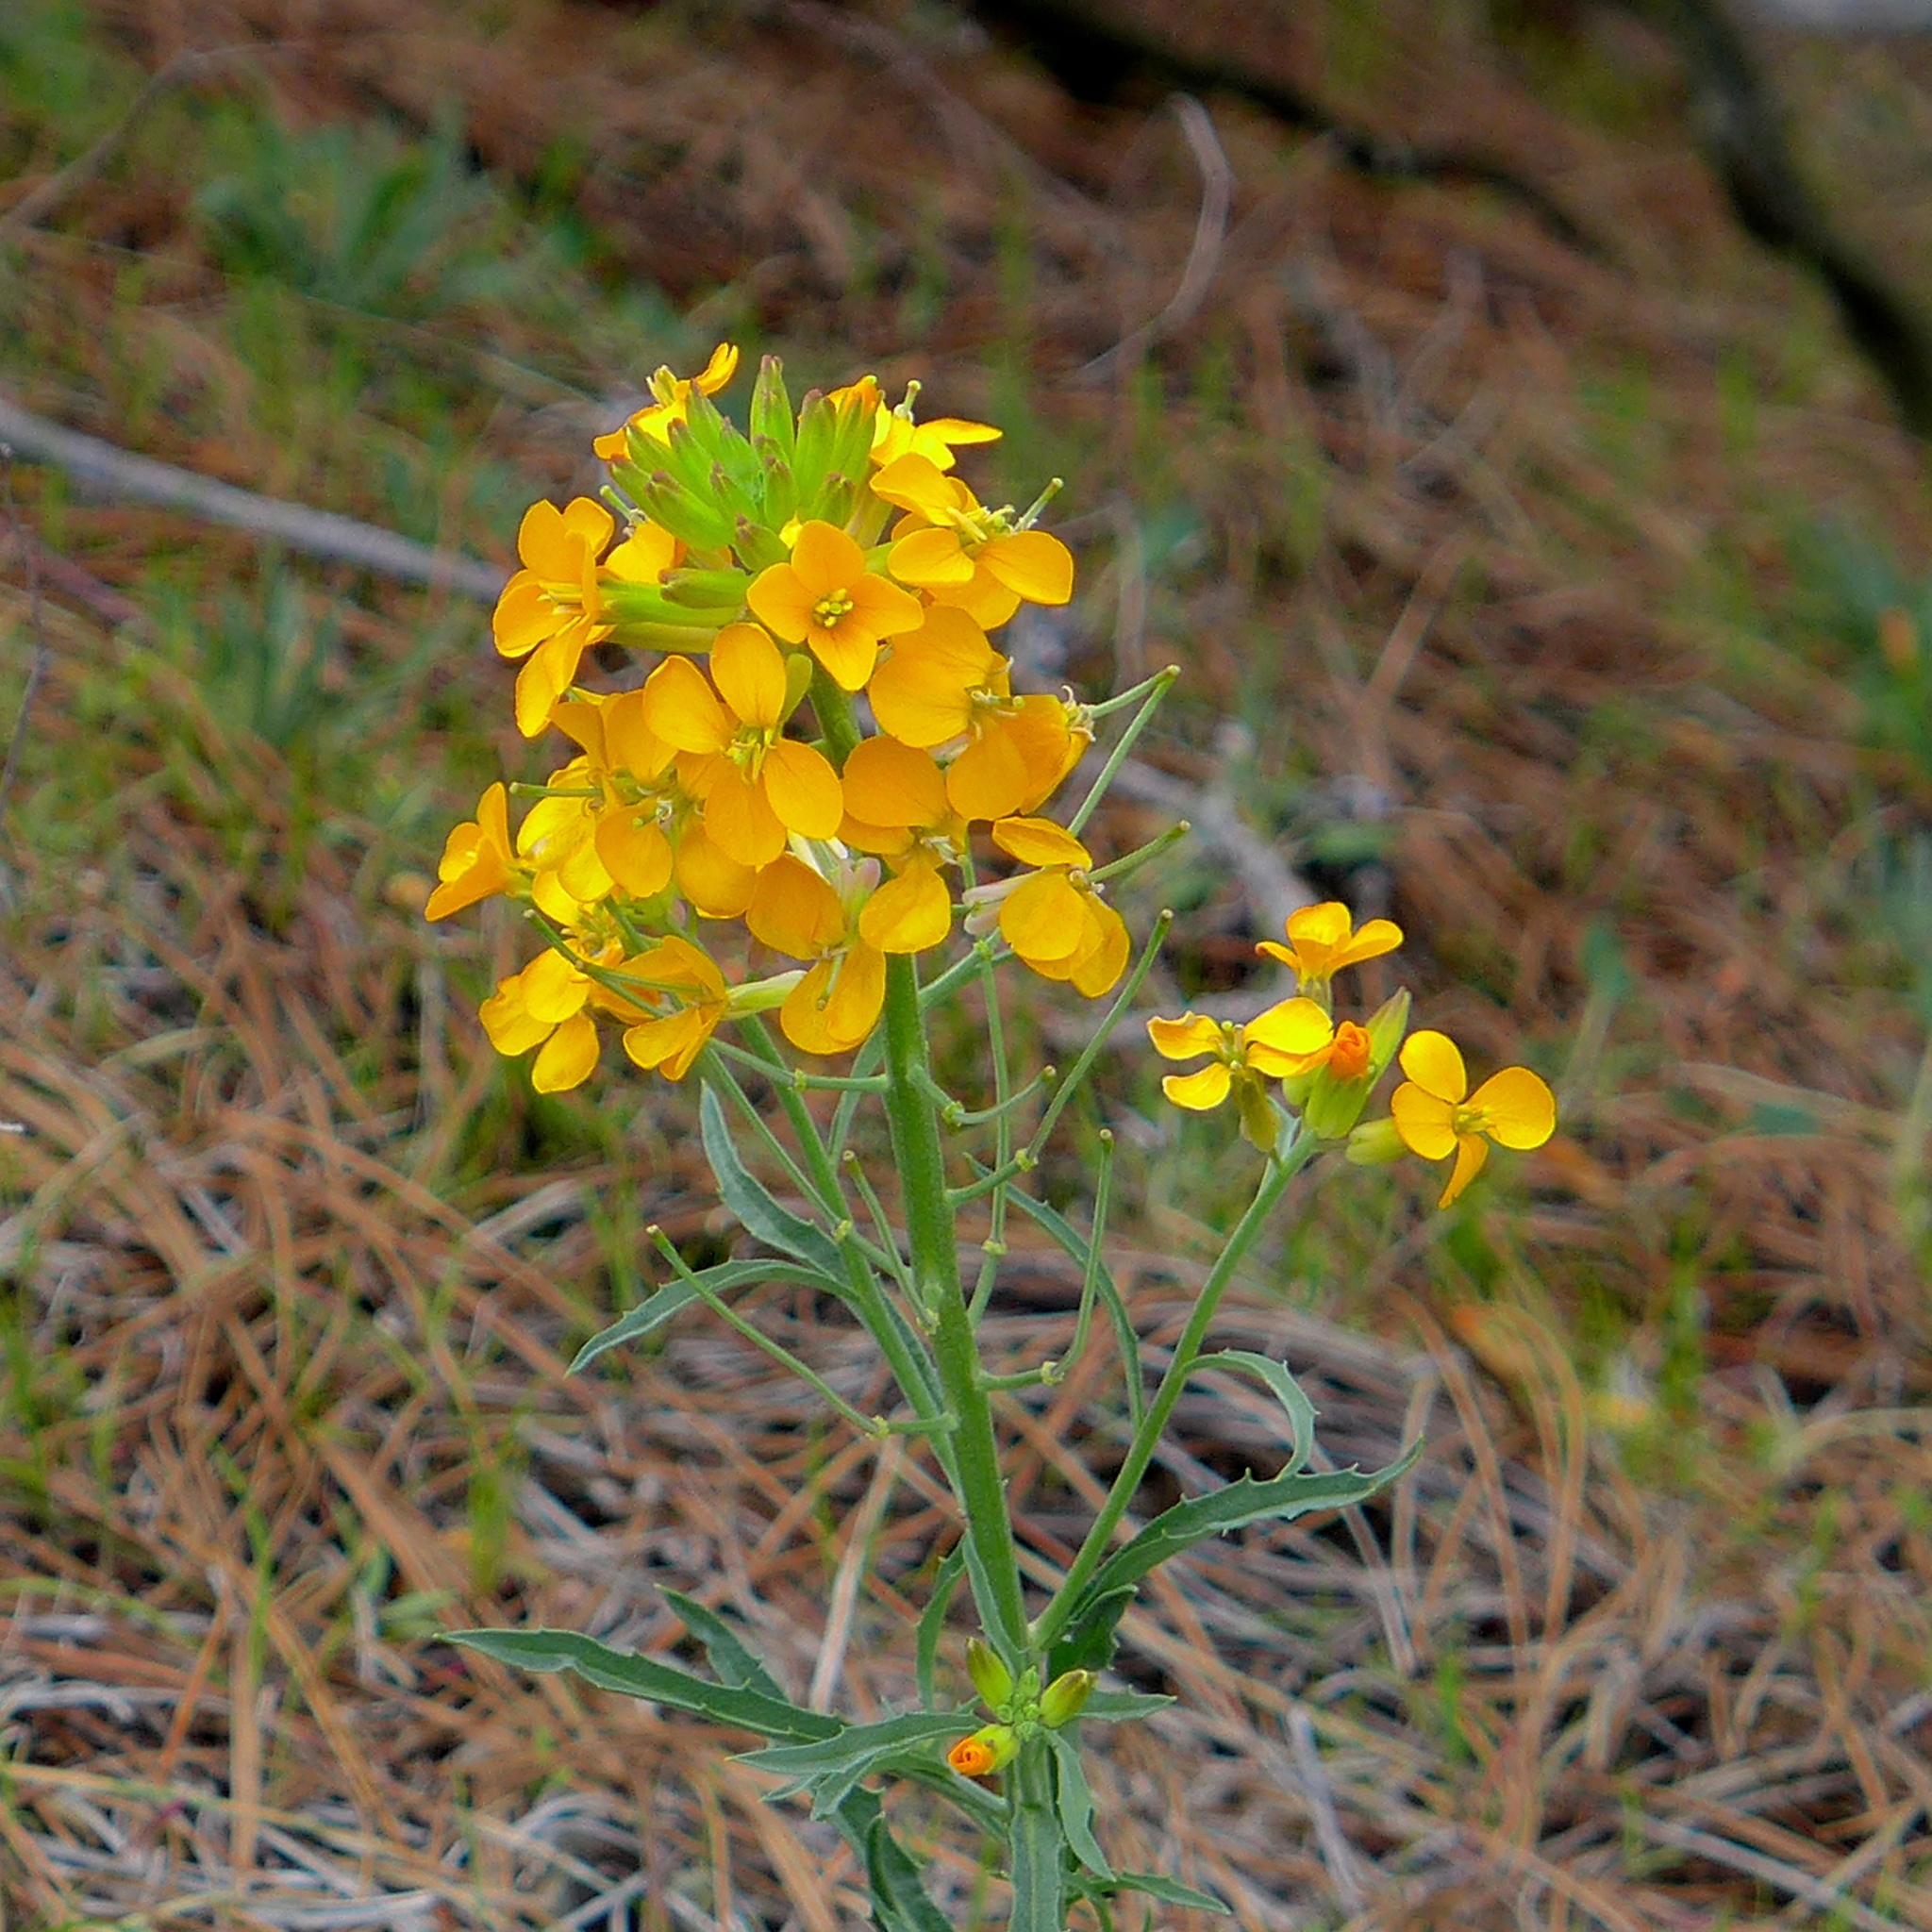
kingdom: Plantae
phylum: Tracheophyta
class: Magnoliopsida
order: Brassicales
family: Brassicaceae
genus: Erysimum
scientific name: Erysimum capitatum
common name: Western wallflower
